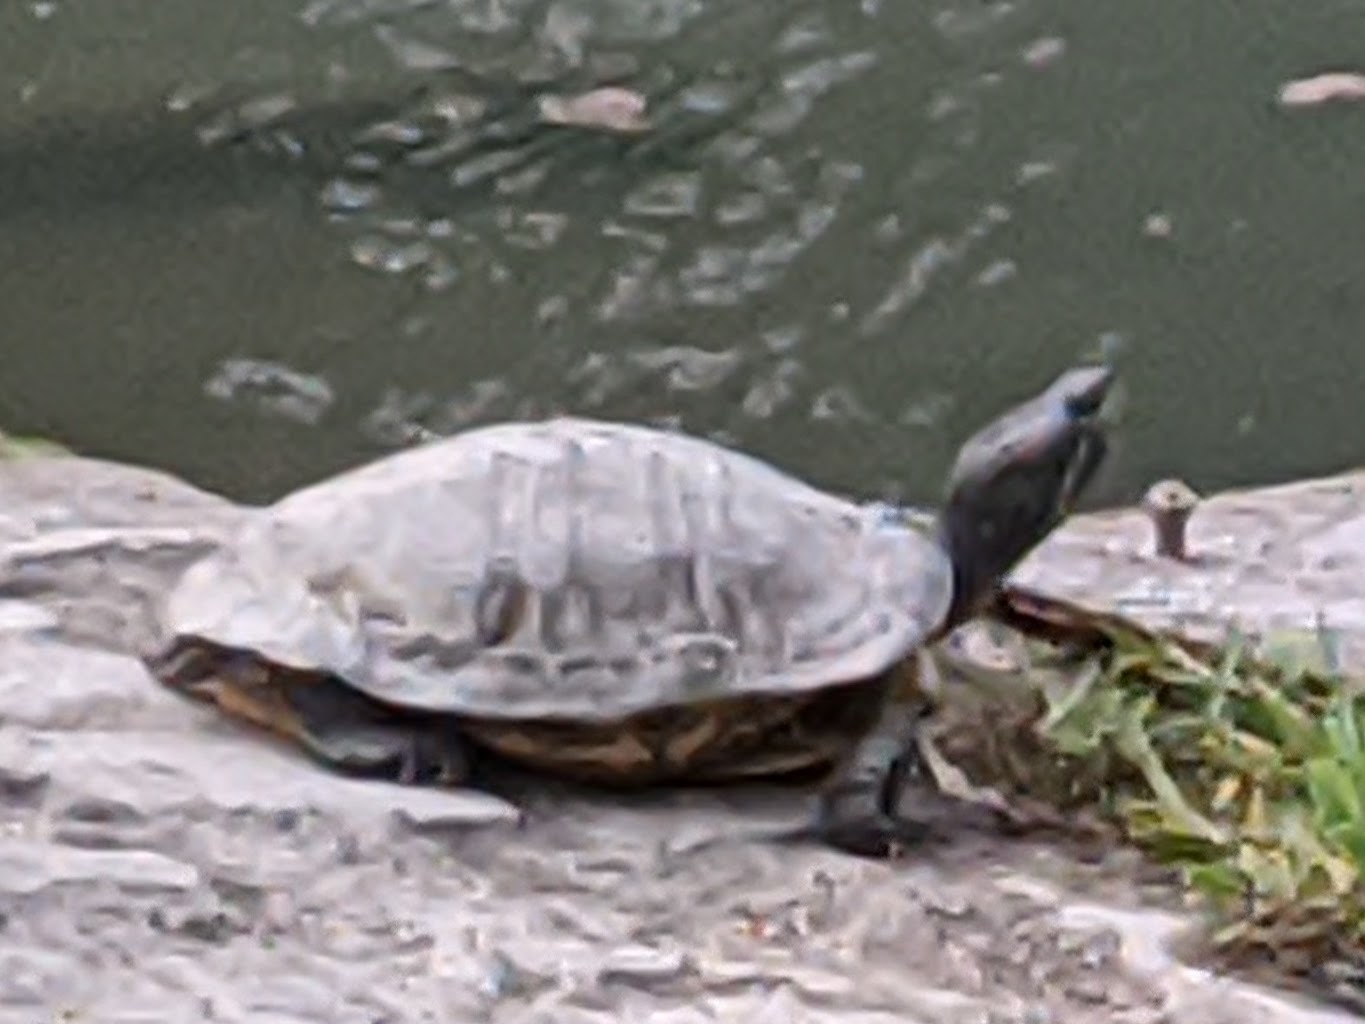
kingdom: Animalia
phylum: Chordata
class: Testudines
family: Emydidae
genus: Trachemys
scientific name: Trachemys scripta
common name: Slider
